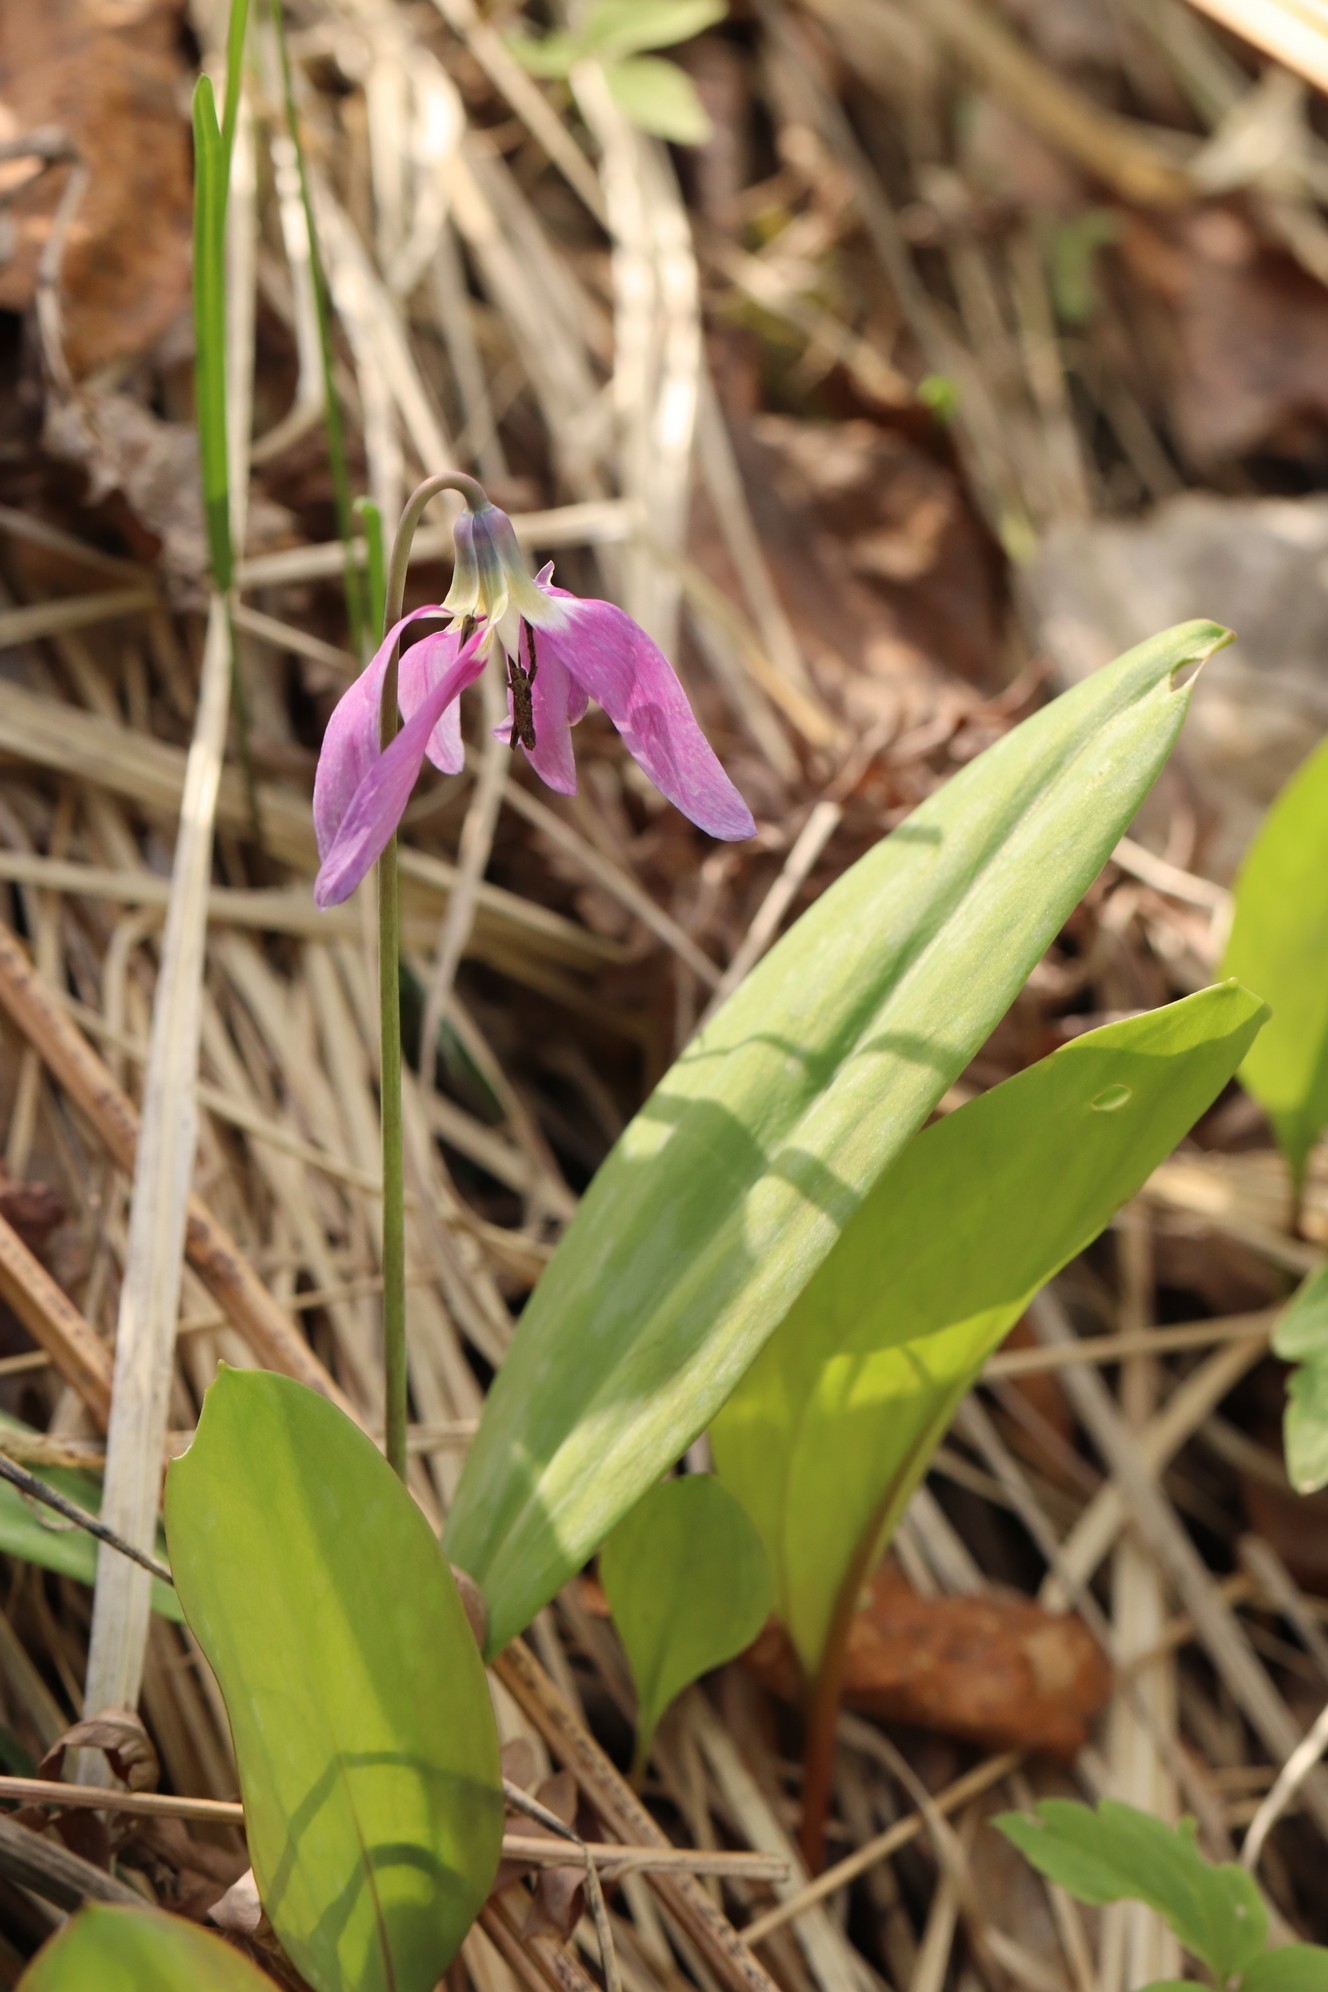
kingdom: Plantae
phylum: Tracheophyta
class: Liliopsida
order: Liliales
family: Liliaceae
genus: Erythronium
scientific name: Erythronium sulevii
